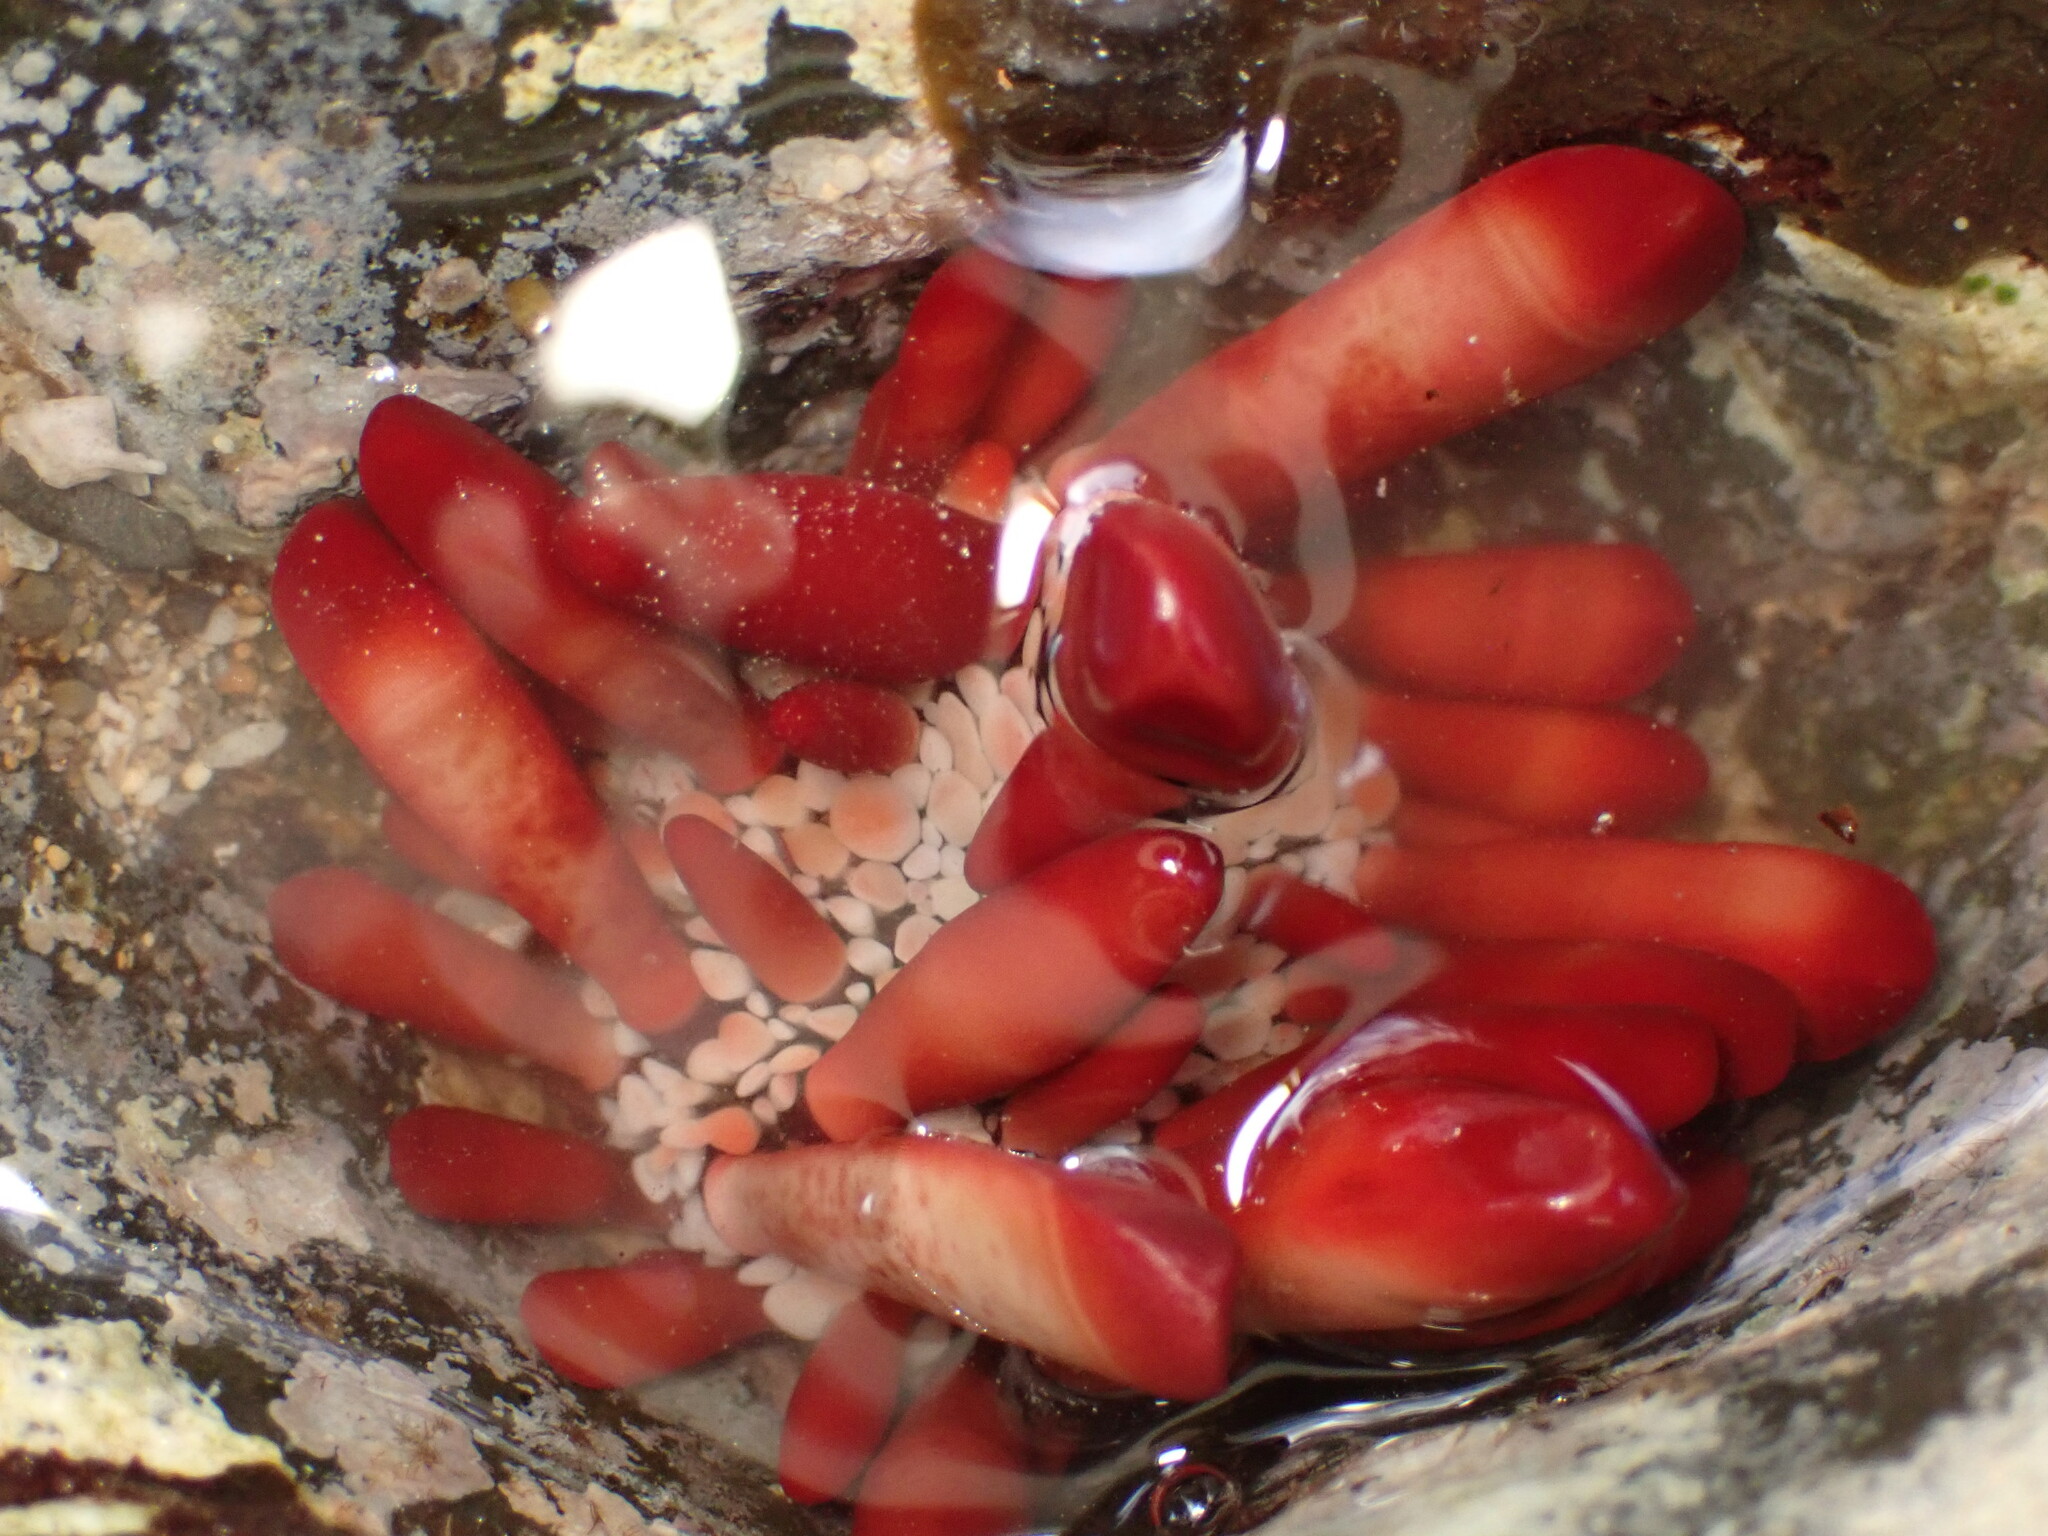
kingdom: Animalia
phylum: Echinodermata
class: Echinoidea
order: Camarodonta
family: Echinometridae
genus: Heterocentrotus
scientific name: Heterocentrotus mamillatus
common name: Slate pencil urchin
